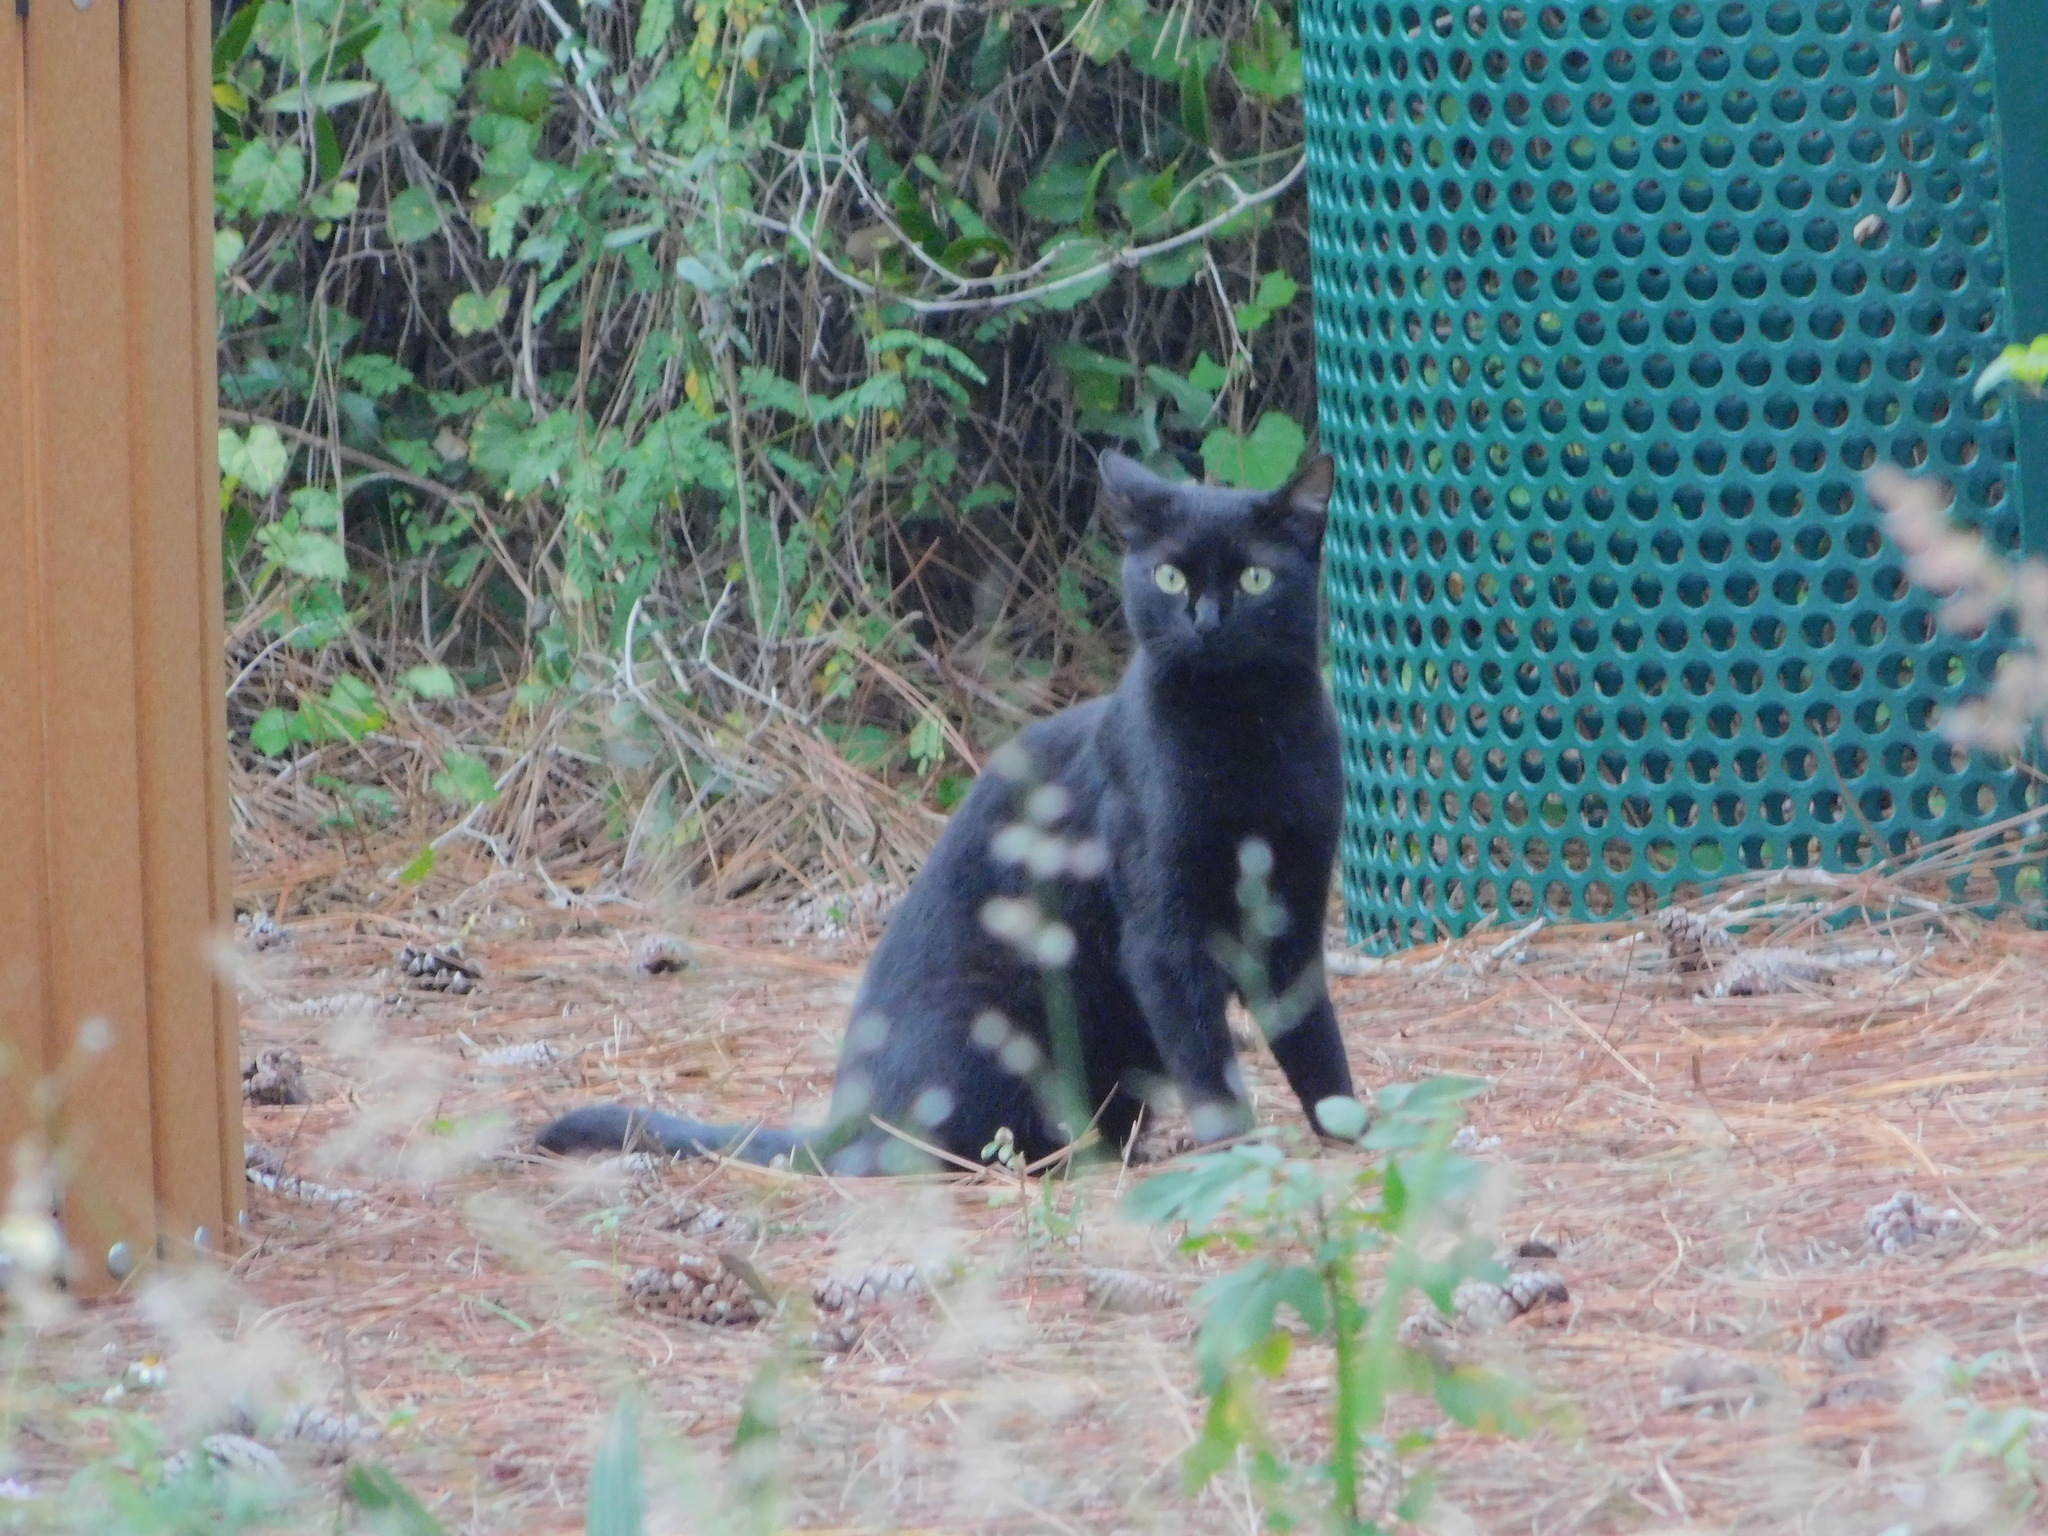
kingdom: Animalia
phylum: Chordata
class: Mammalia
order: Carnivora
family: Felidae
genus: Felis
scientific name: Felis catus
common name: Domestic cat
